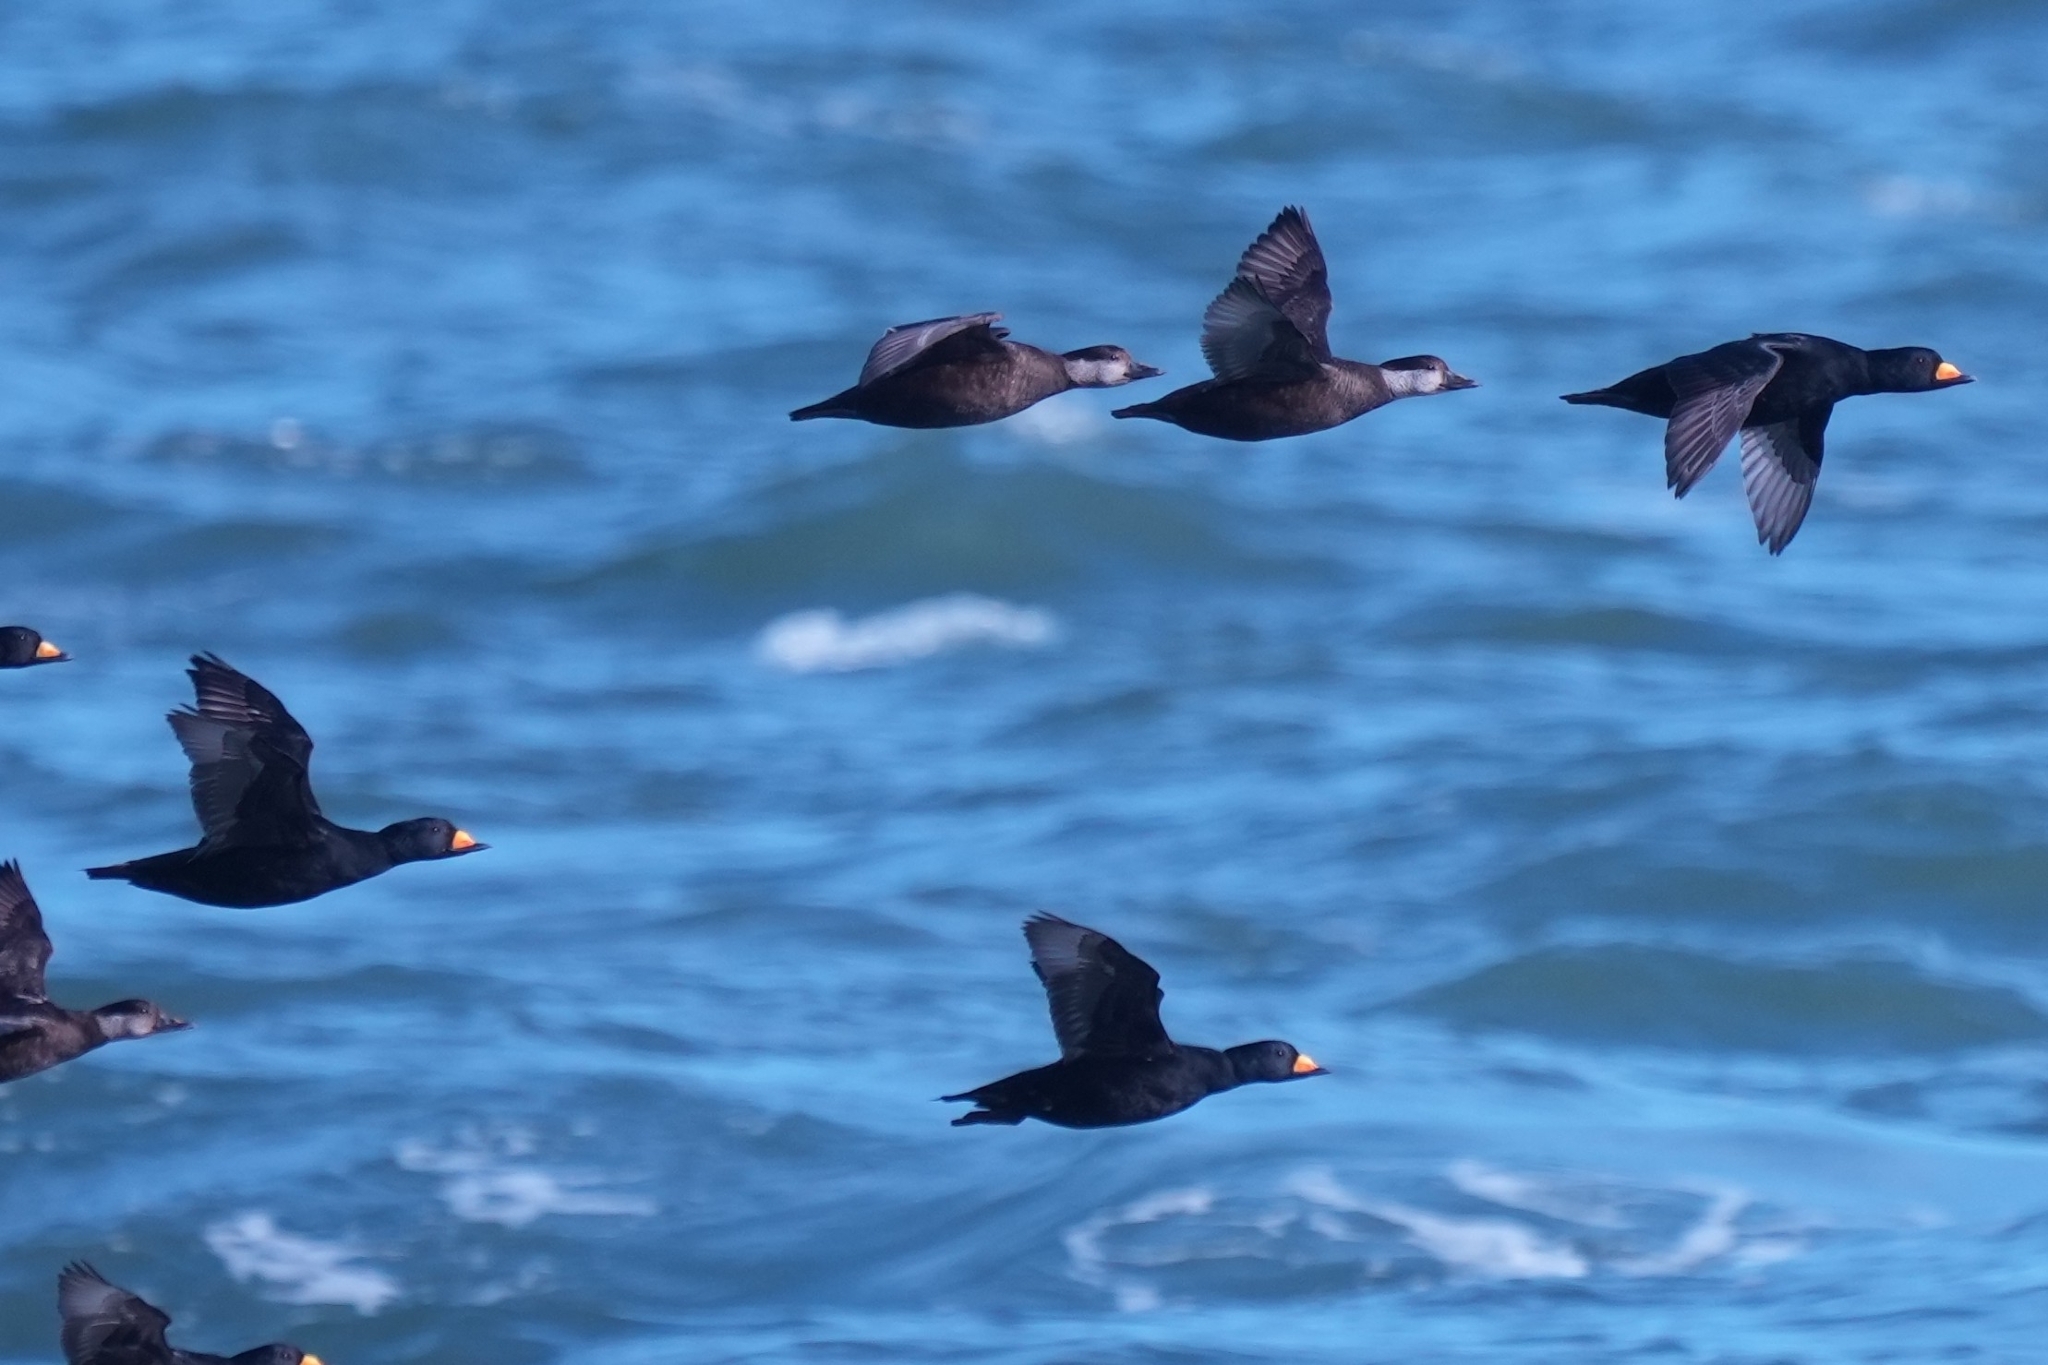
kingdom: Animalia
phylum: Chordata
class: Aves
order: Anseriformes
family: Anatidae
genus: Melanitta
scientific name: Melanitta americana
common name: Black scoter
